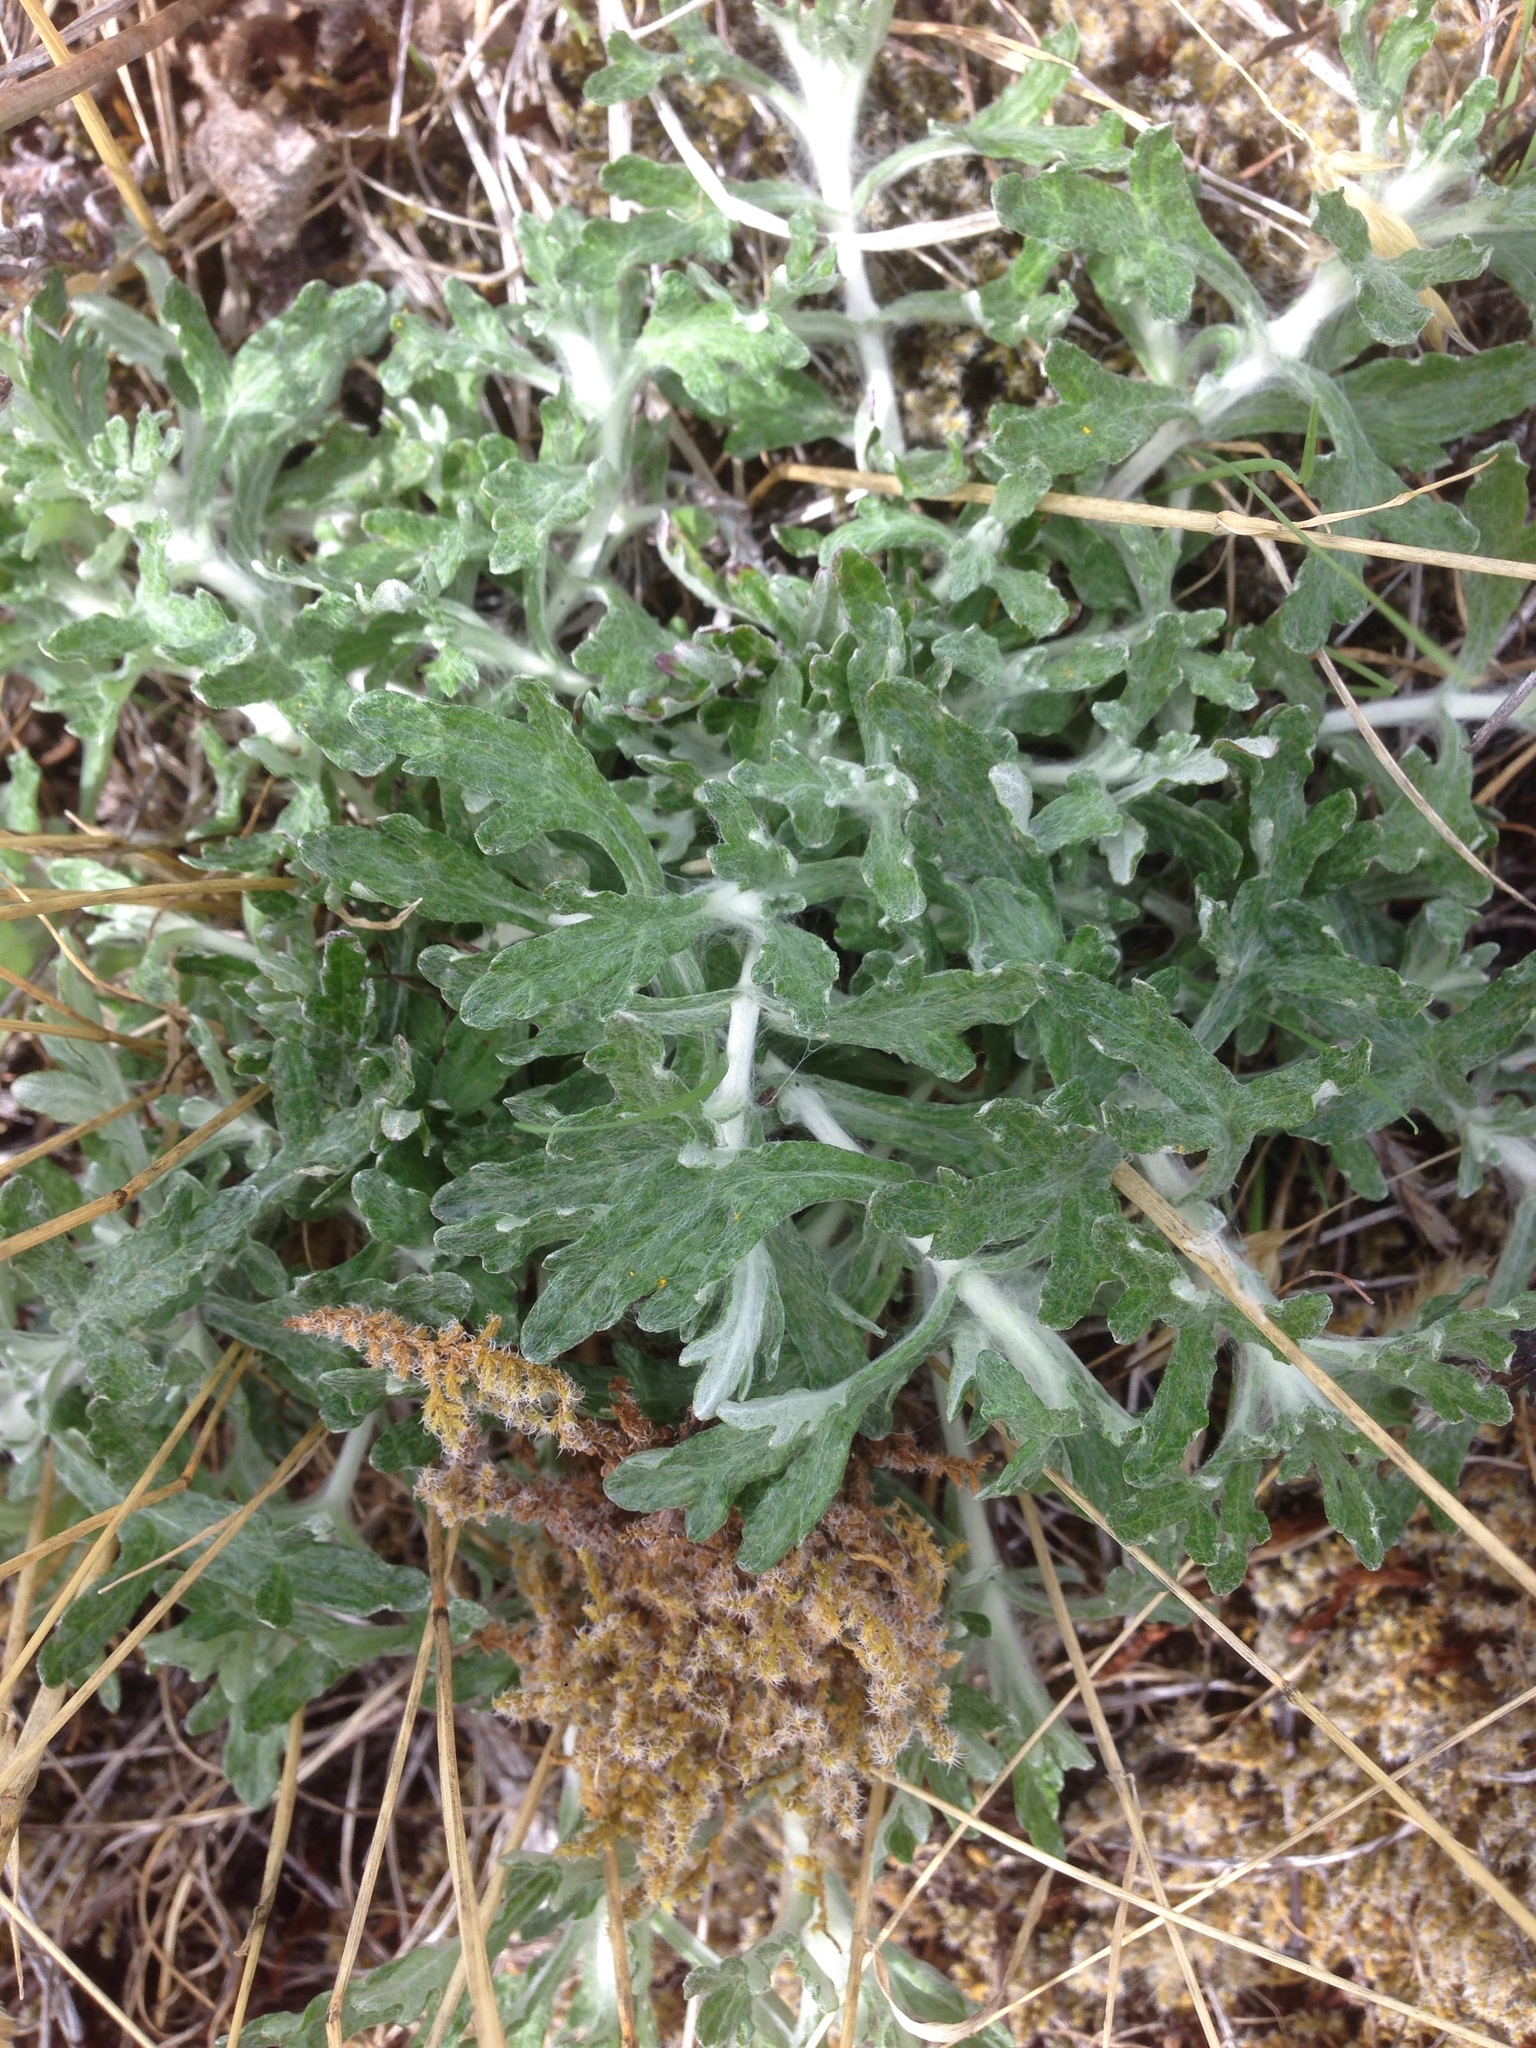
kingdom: Plantae
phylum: Tracheophyta
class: Magnoliopsida
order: Asterales
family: Asteraceae
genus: Eriophyllum
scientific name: Eriophyllum lanatum
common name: Common woolly-sunflower
